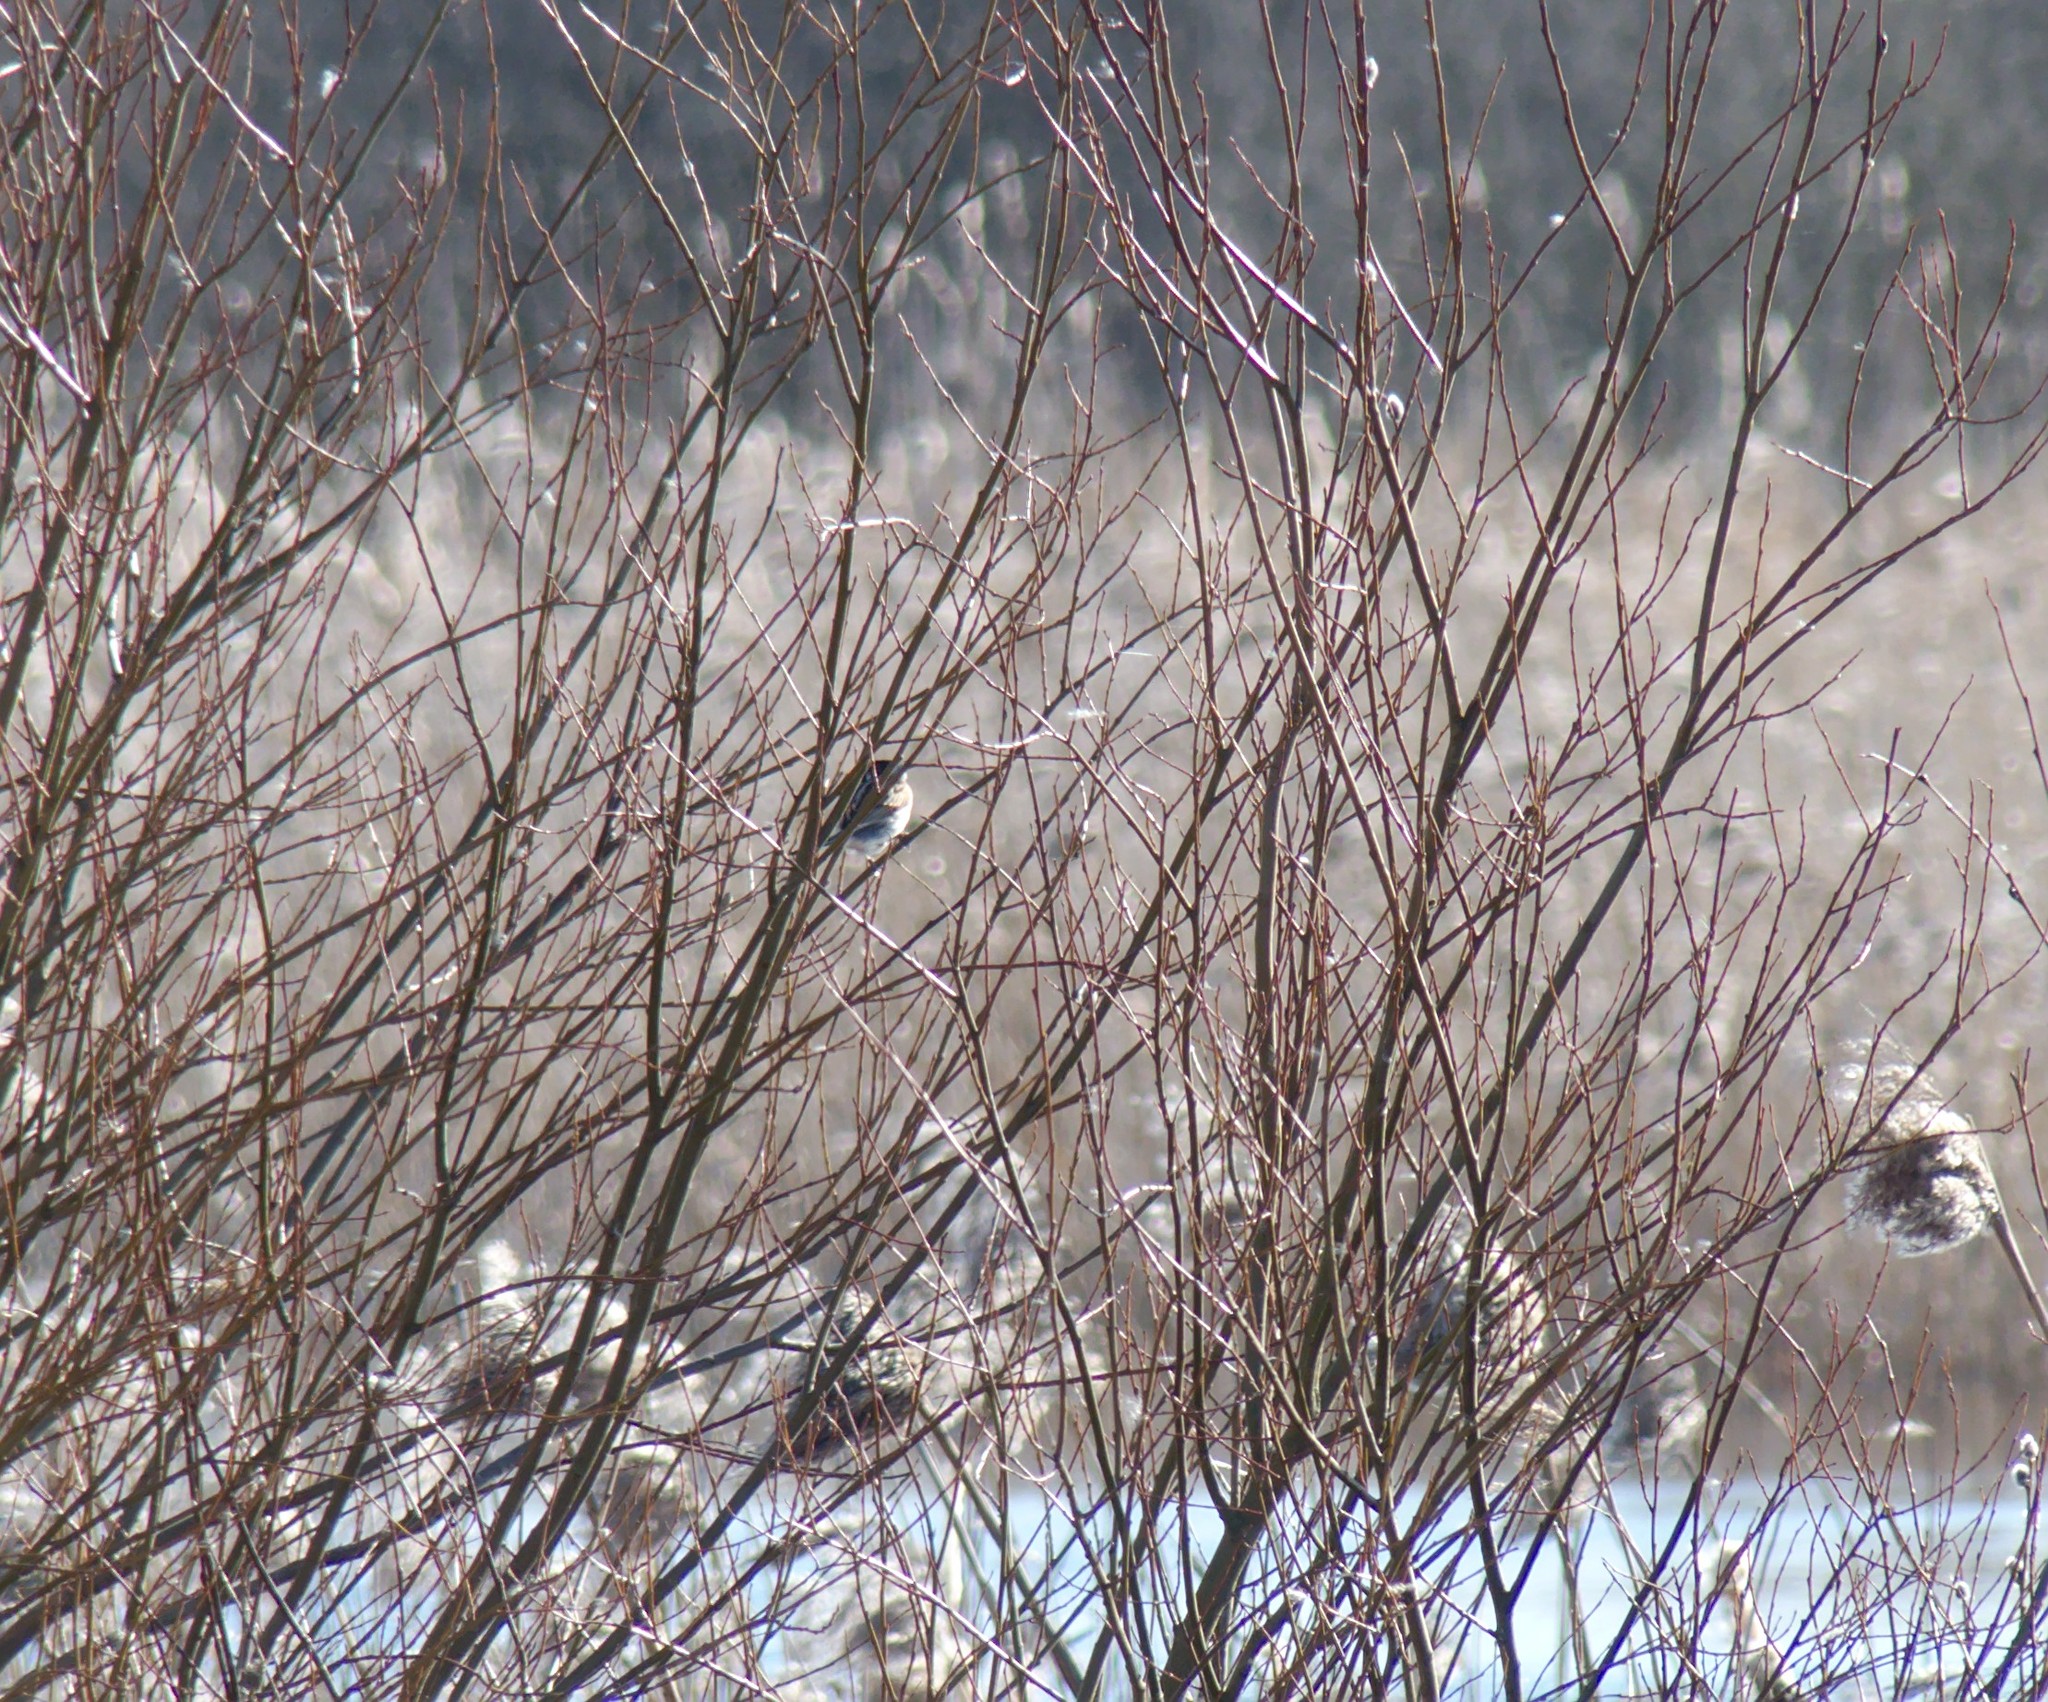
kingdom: Animalia
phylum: Chordata
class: Aves
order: Passeriformes
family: Emberizidae
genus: Emberiza
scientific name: Emberiza schoeniclus
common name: Reed bunting
